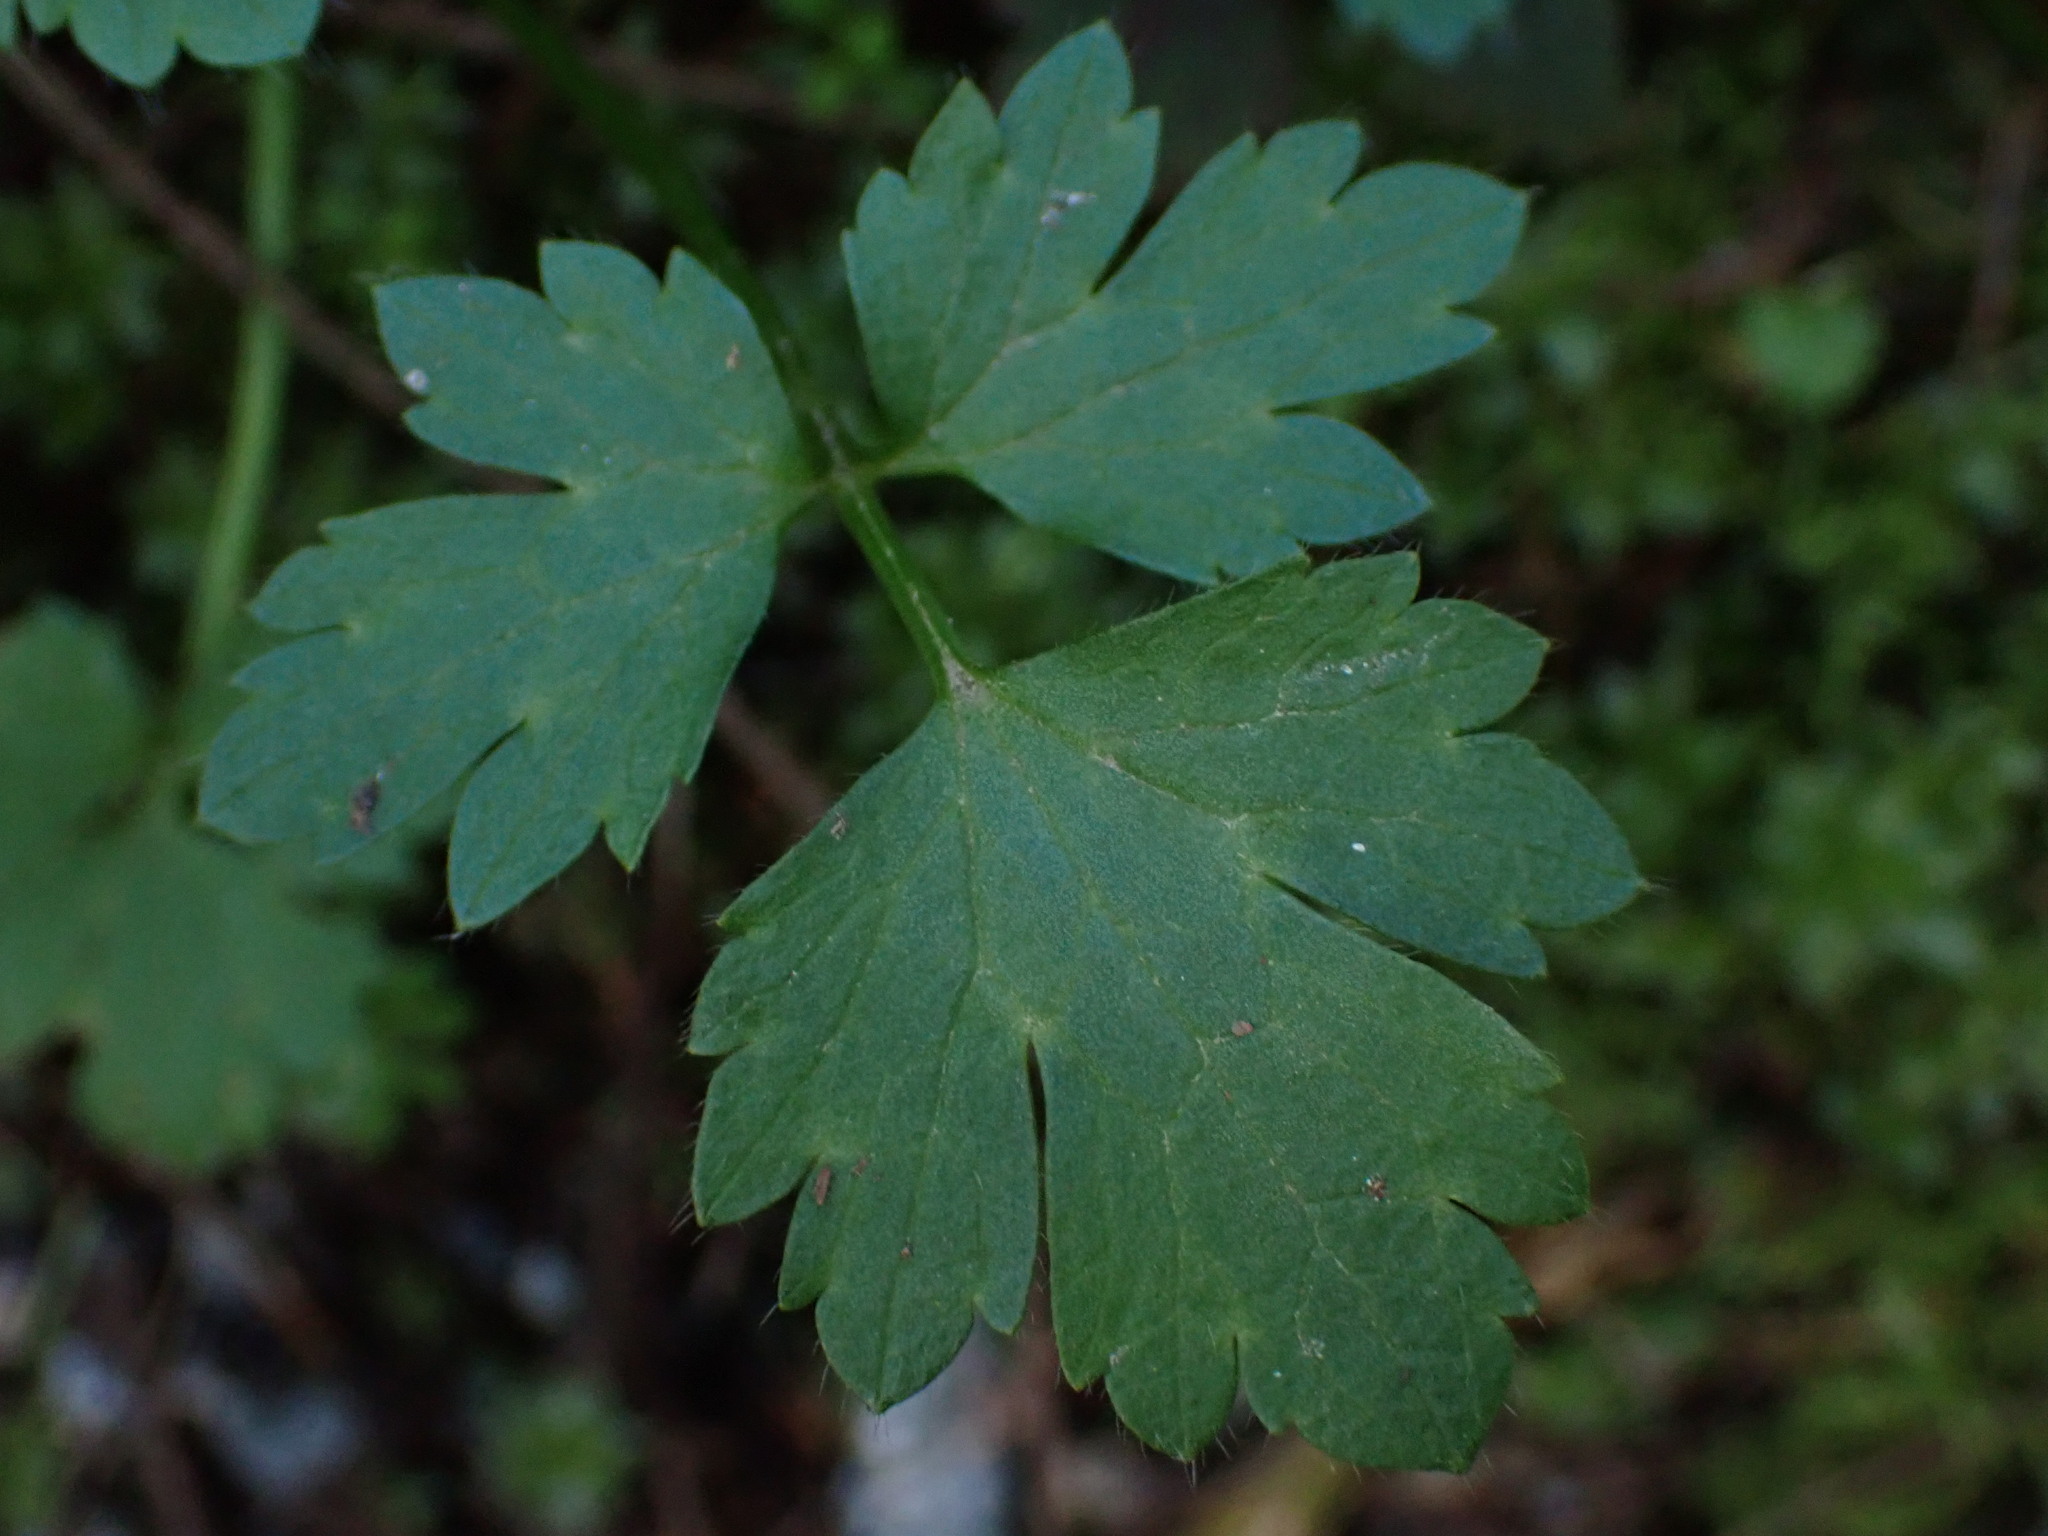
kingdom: Plantae
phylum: Tracheophyta
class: Magnoliopsida
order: Ranunculales
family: Ranunculaceae
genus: Ranunculus
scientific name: Ranunculus repens
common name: Creeping buttercup
